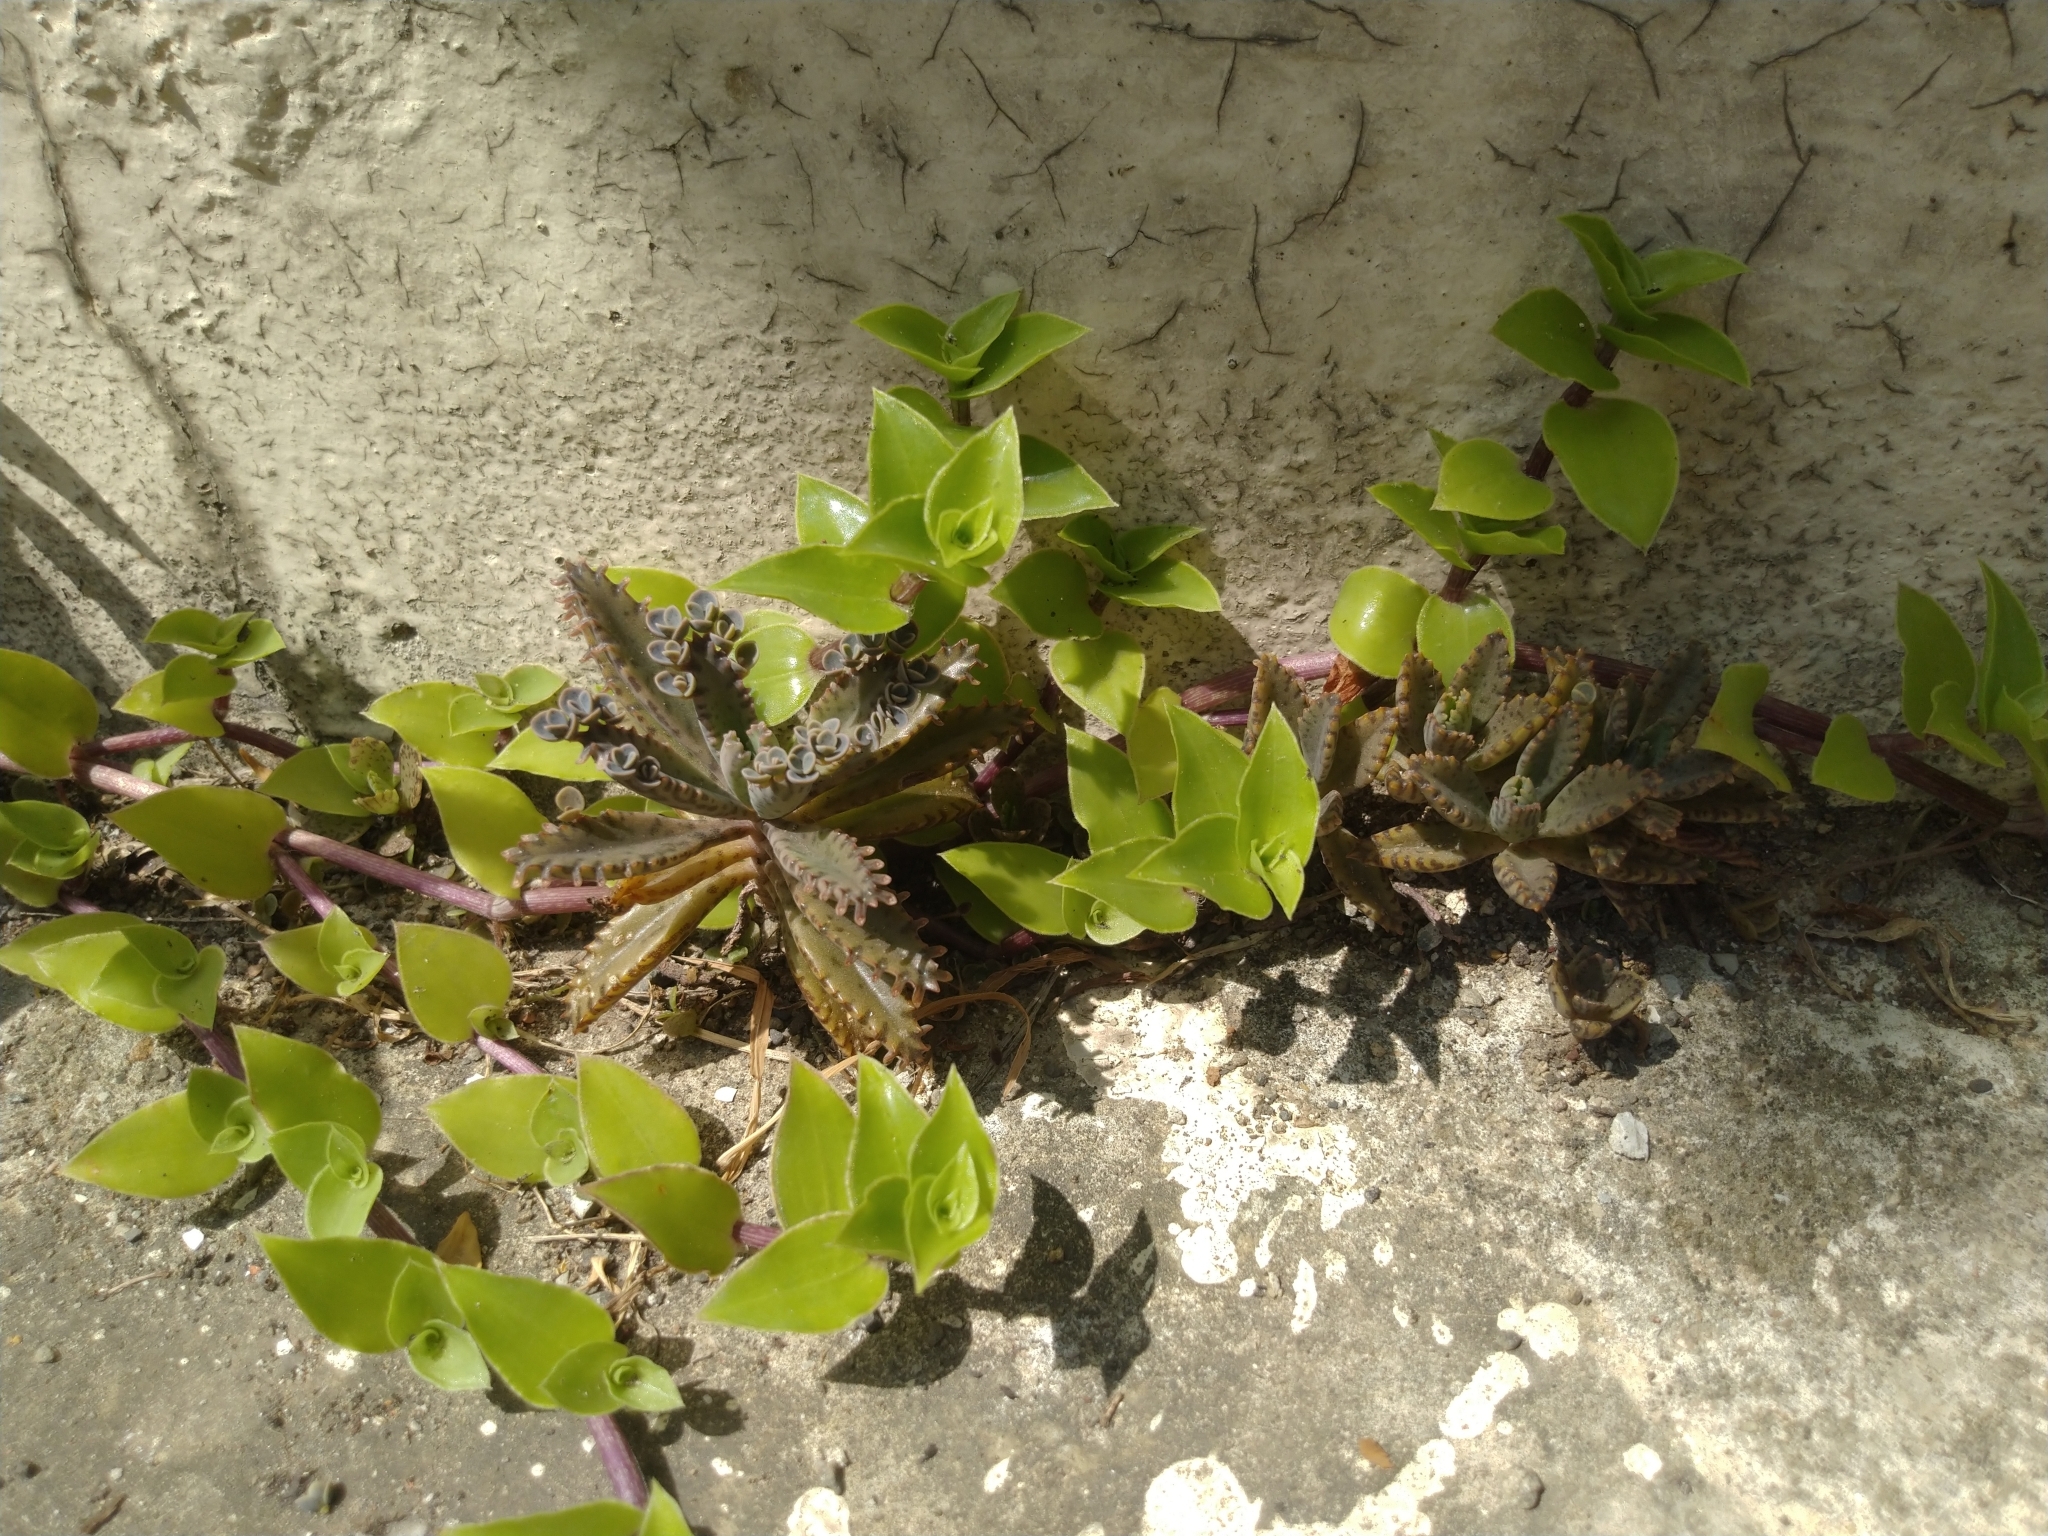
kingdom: Plantae
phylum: Tracheophyta
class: Liliopsida
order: Commelinales
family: Commelinaceae
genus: Callisia
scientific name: Callisia repens
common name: Creeping inchplant
